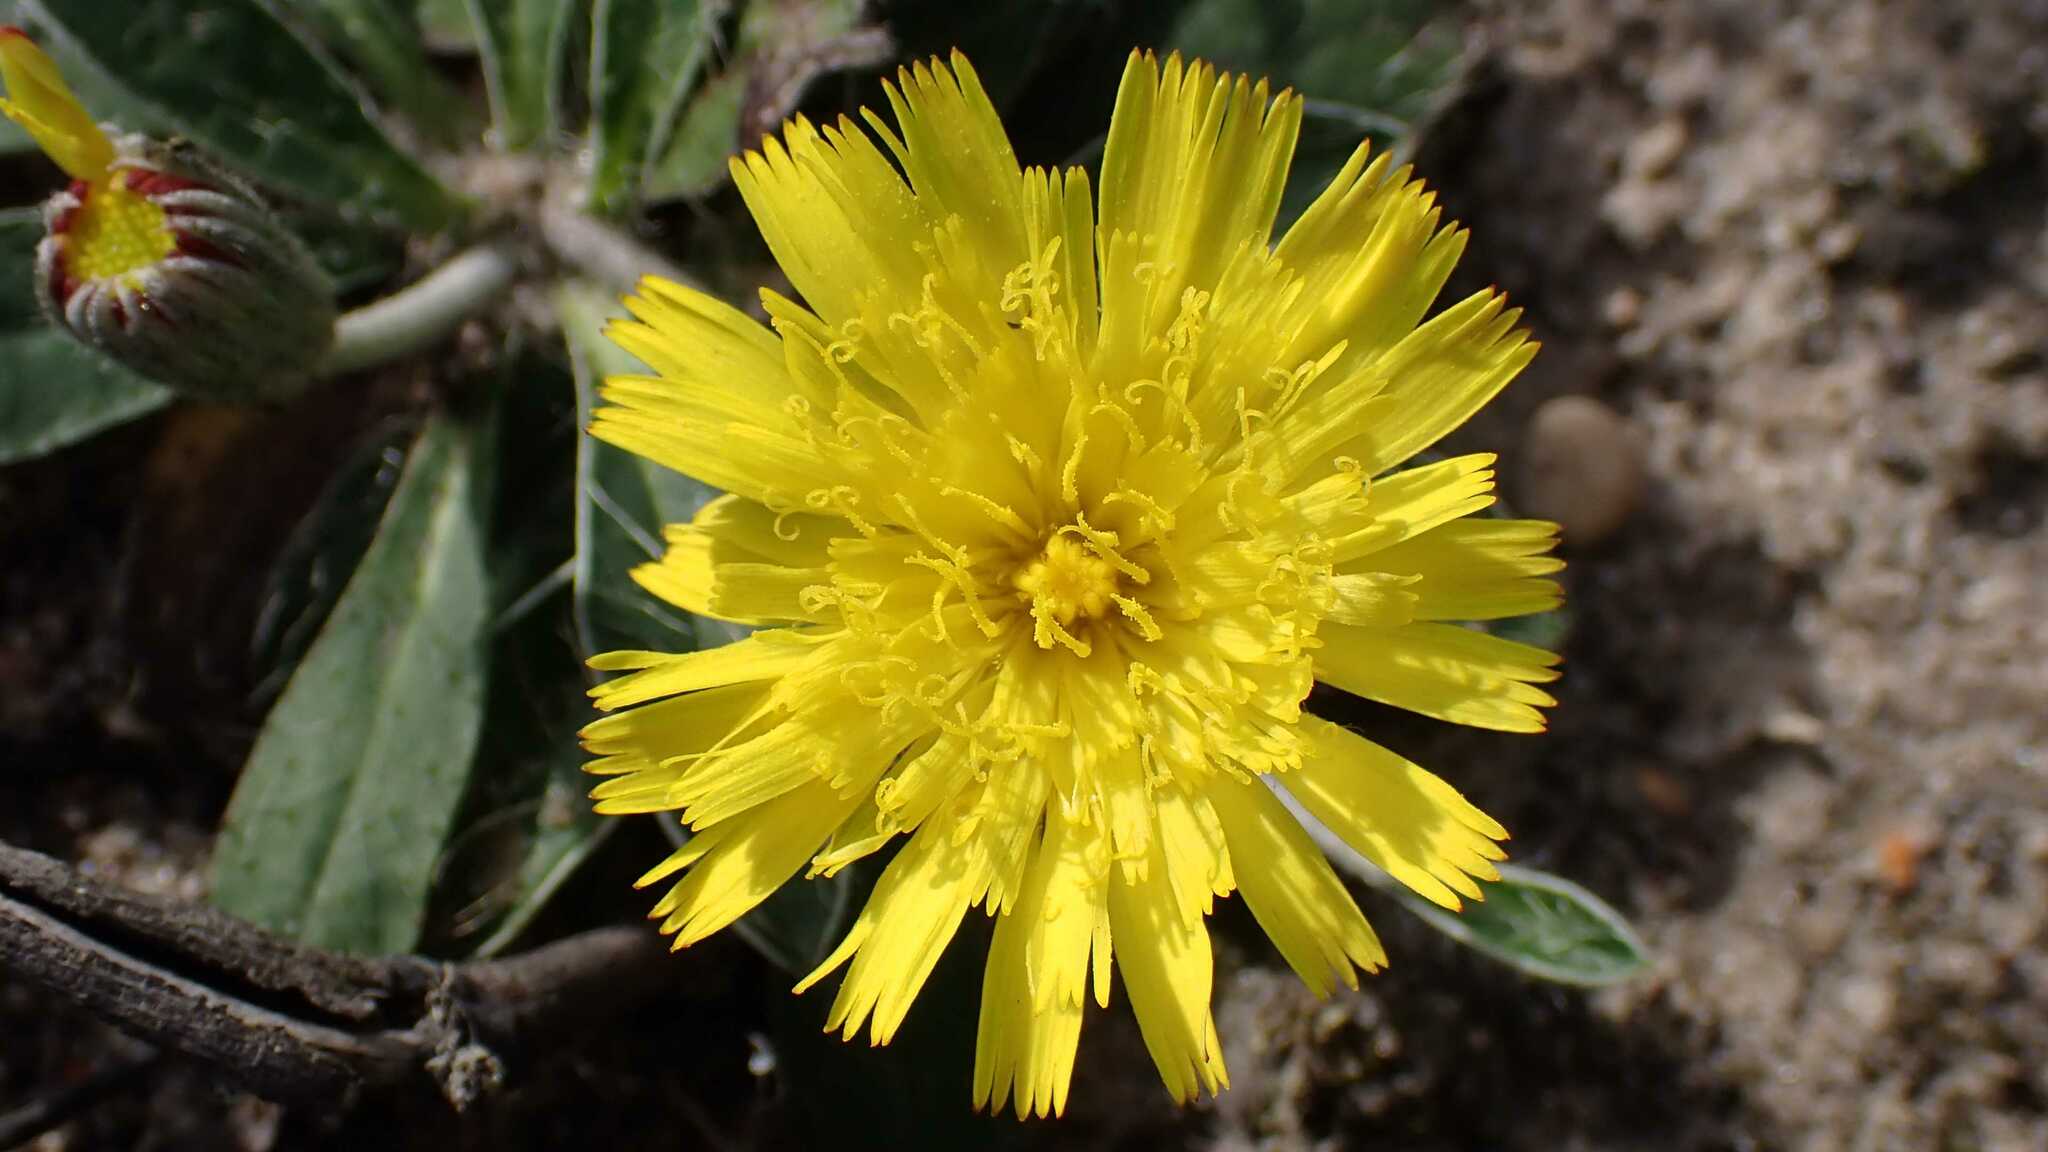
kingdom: Plantae
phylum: Tracheophyta
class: Magnoliopsida
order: Asterales
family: Asteraceae
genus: Pilosella
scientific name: Pilosella officinarum
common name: Mouse-ear hawkweed
